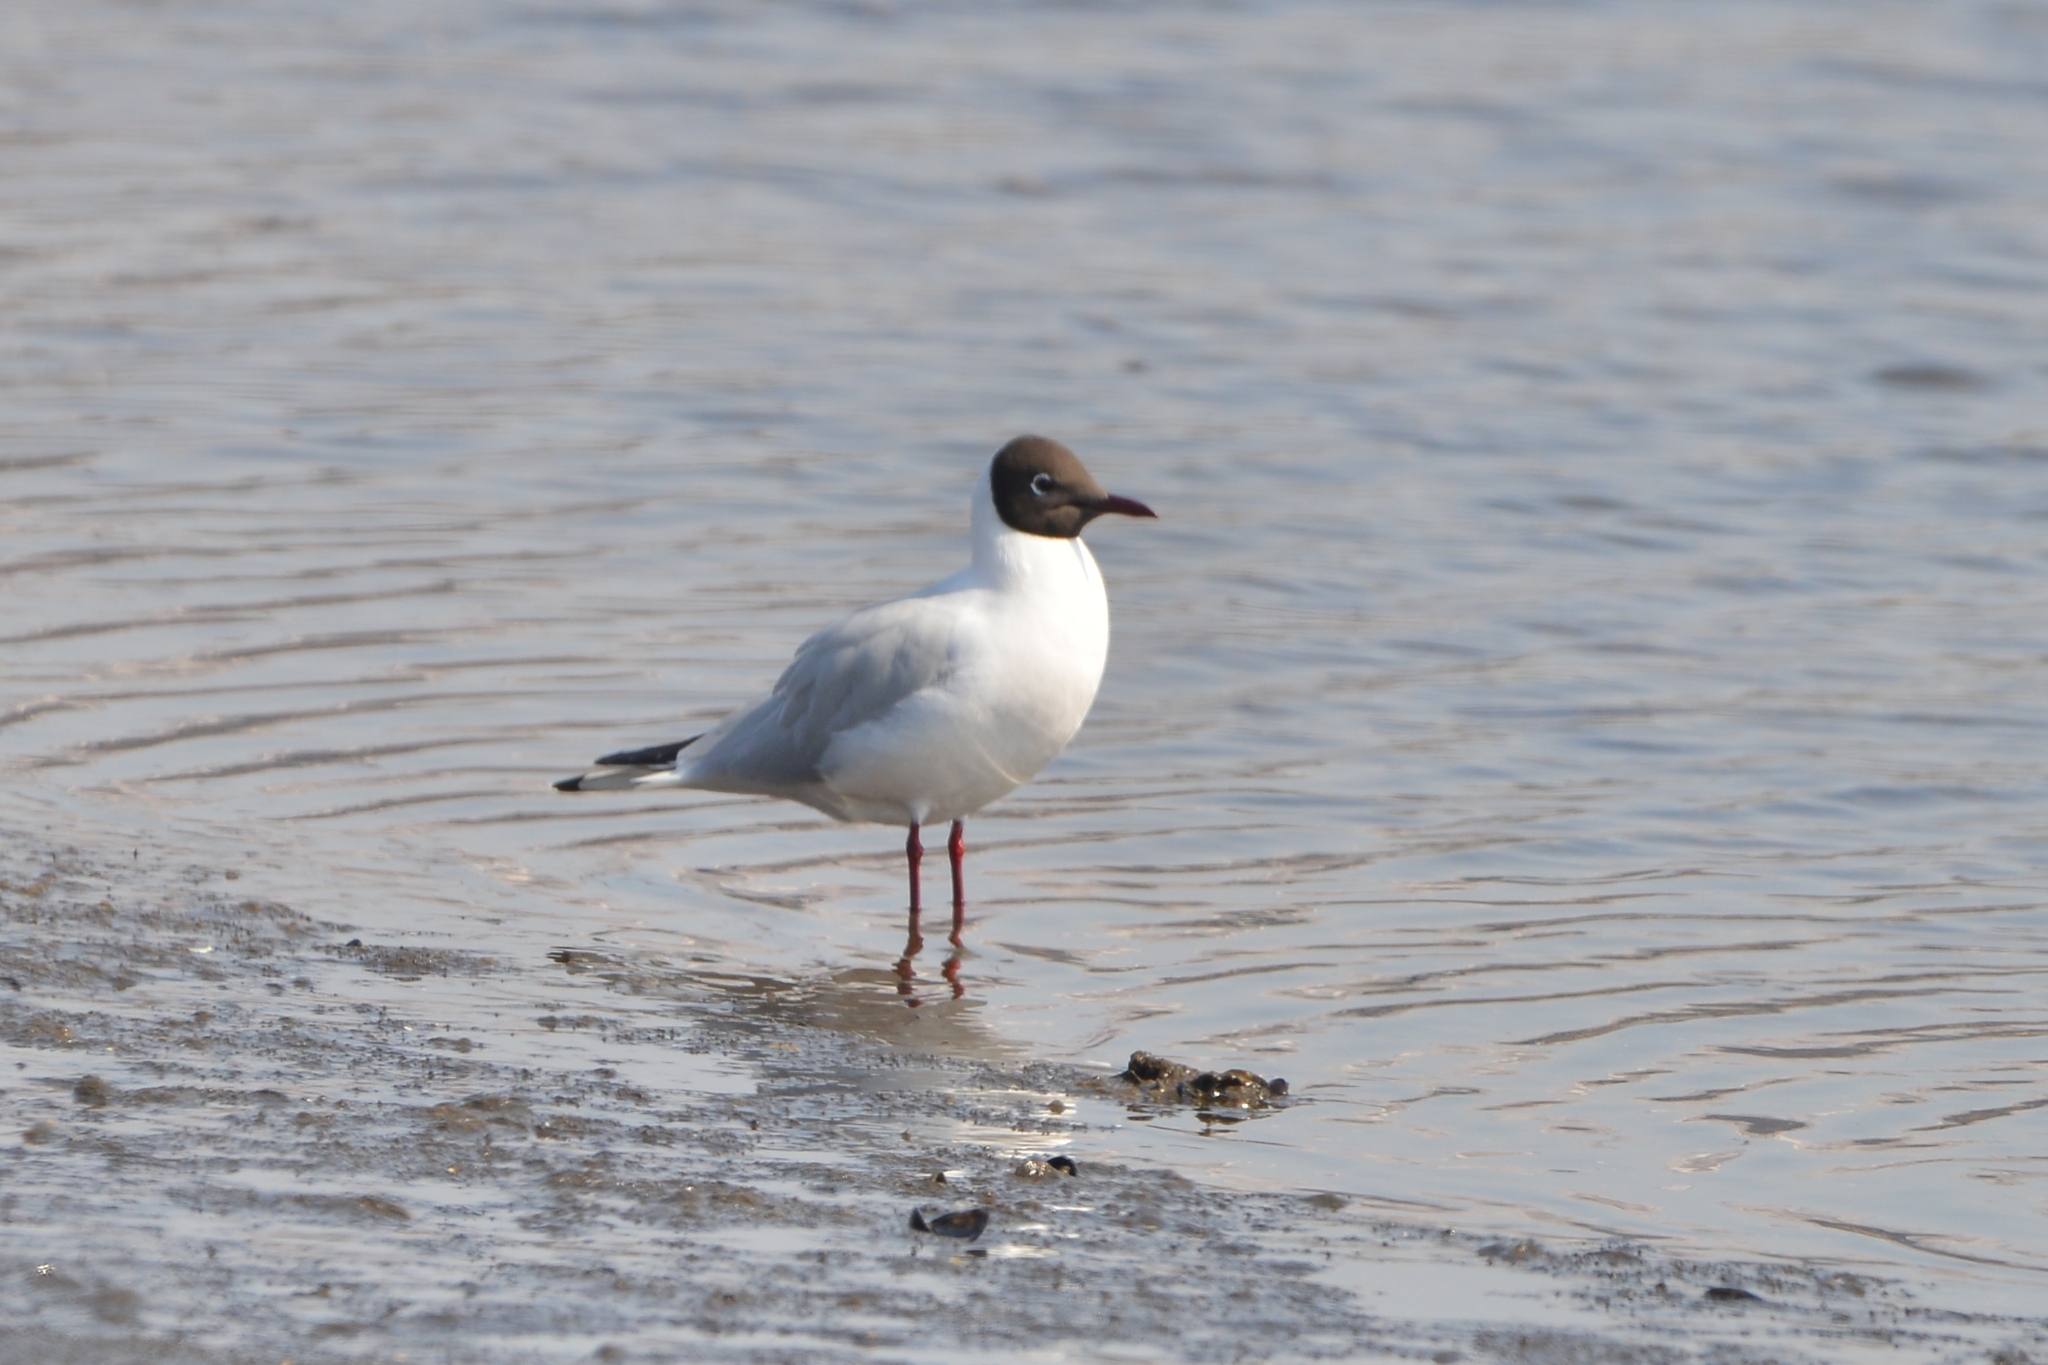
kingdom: Animalia
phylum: Chordata
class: Aves
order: Charadriiformes
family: Laridae
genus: Chroicocephalus
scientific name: Chroicocephalus ridibundus
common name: Black-headed gull
